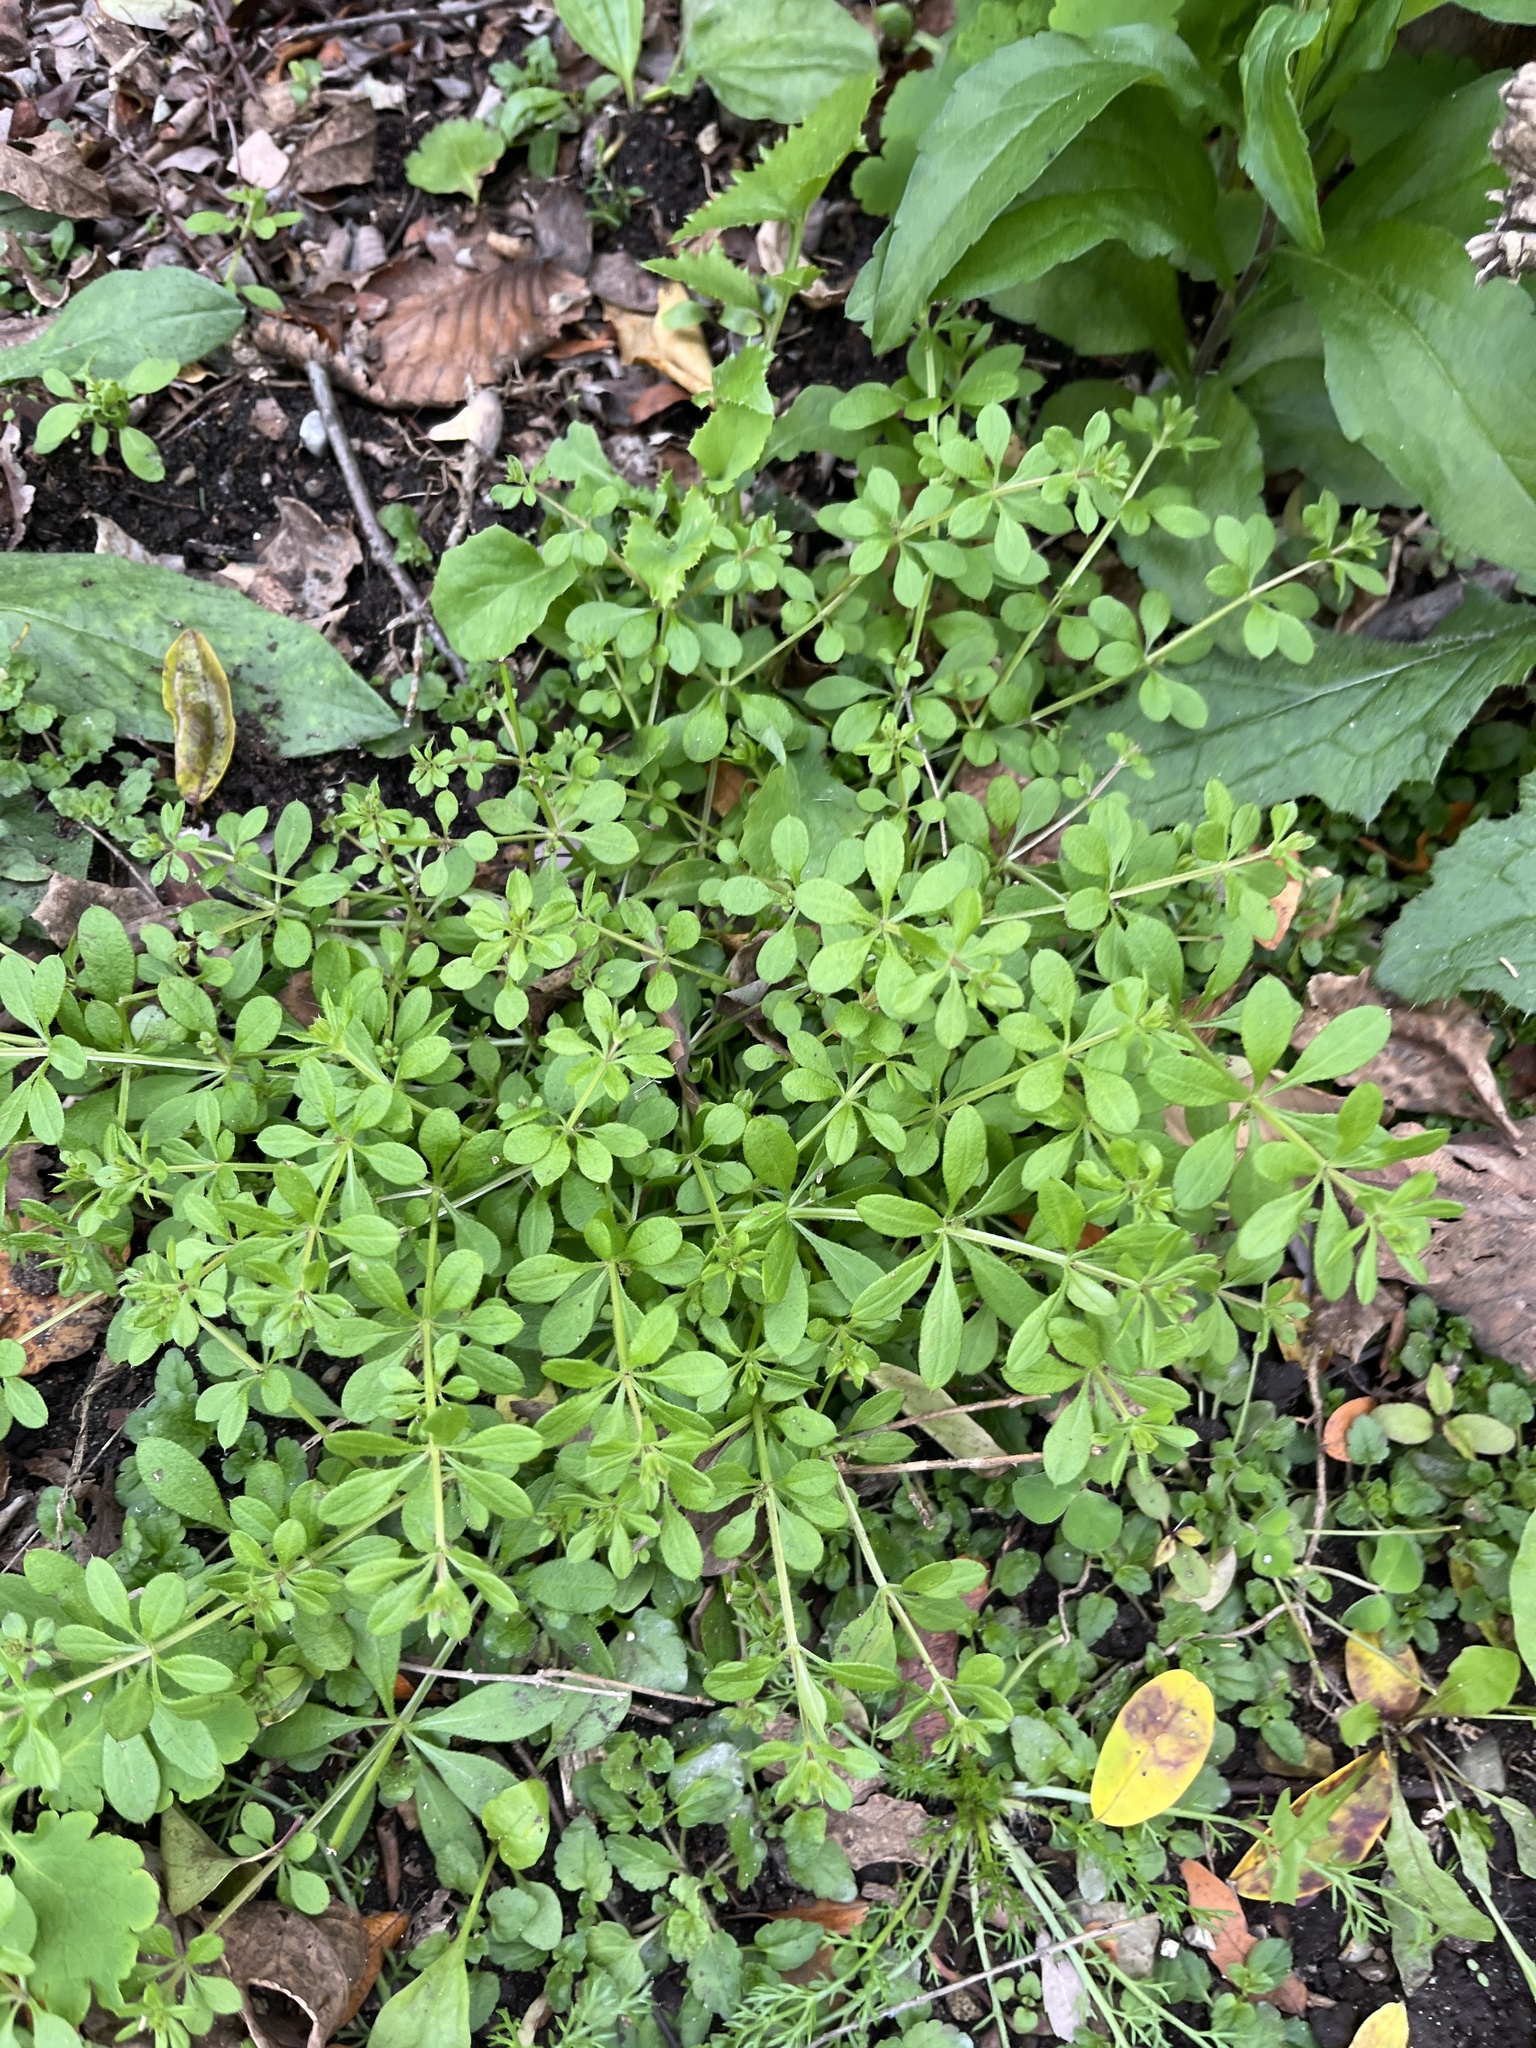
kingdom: Plantae
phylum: Tracheophyta
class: Magnoliopsida
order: Gentianales
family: Rubiaceae
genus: Galium
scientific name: Galium aparine
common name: Cleavers
